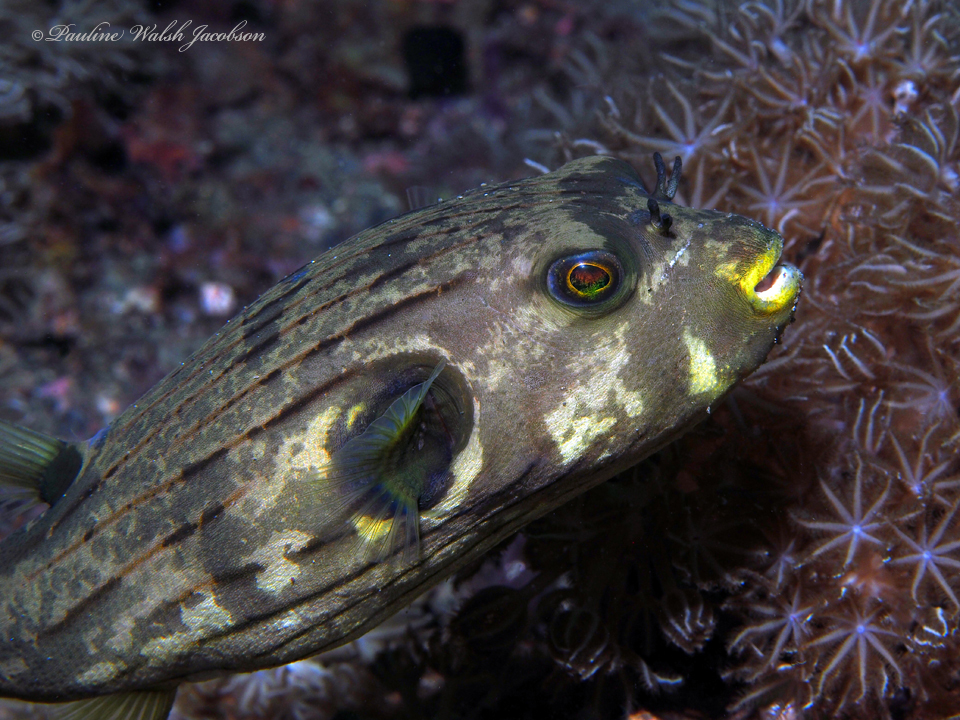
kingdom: Animalia
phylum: Chordata
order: Tetraodontiformes
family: Tetraodontidae
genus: Arothron
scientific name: Arothron manilensis
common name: Narrow-lined puffer
